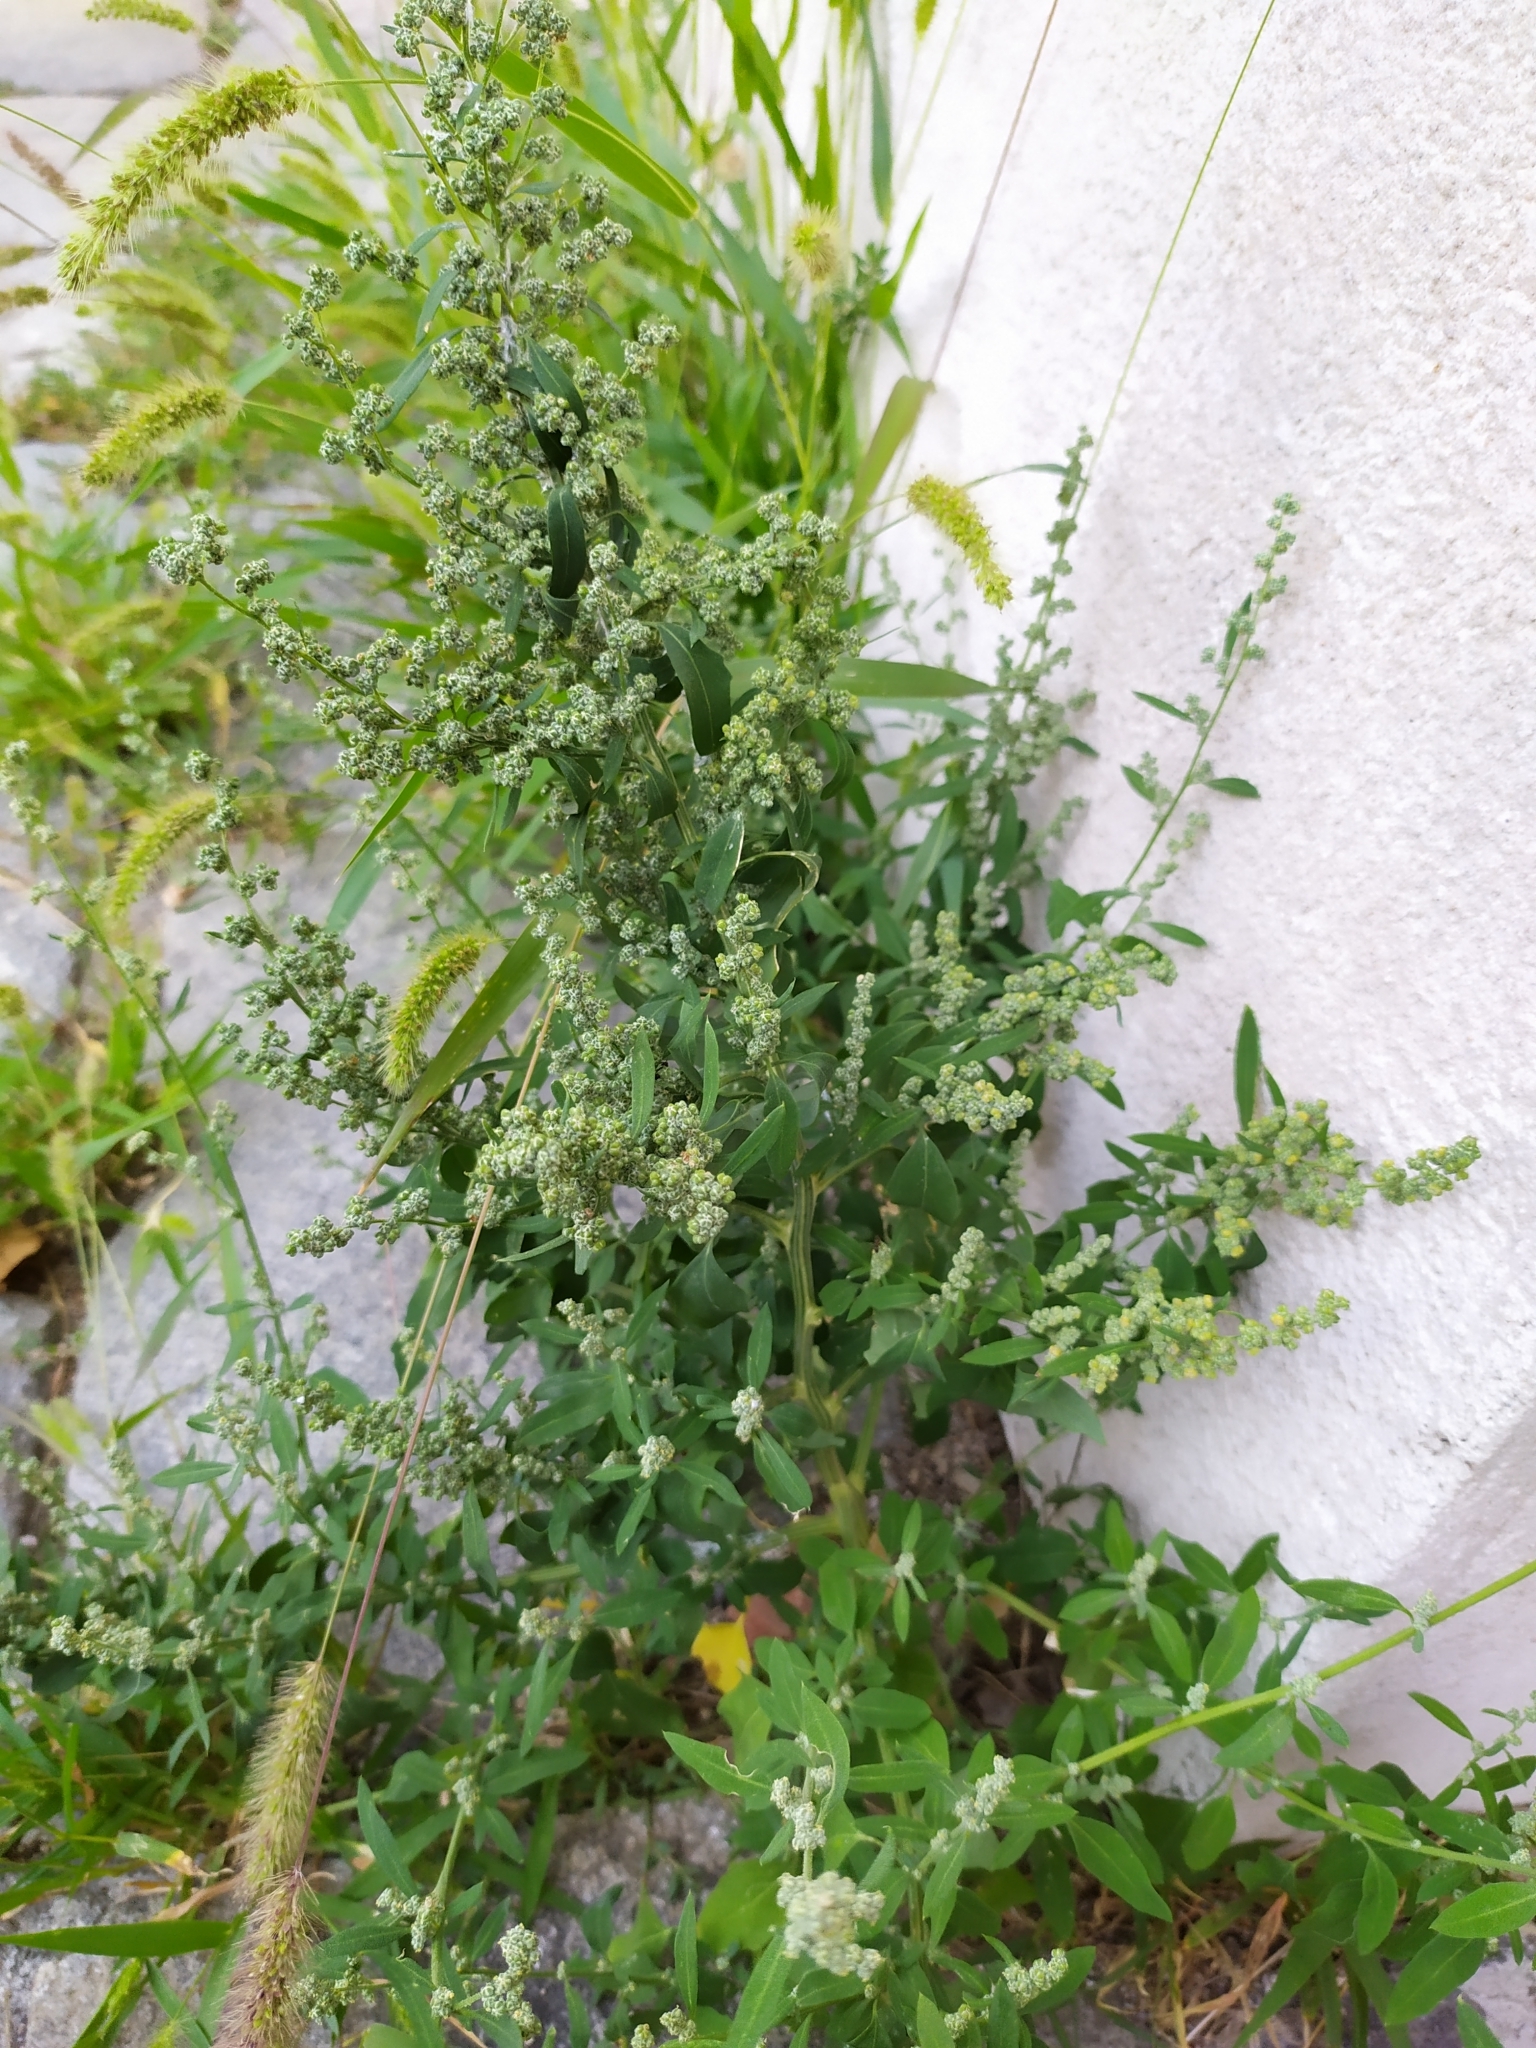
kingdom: Plantae
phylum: Tracheophyta
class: Magnoliopsida
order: Caryophyllales
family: Amaranthaceae
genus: Chenopodium
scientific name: Chenopodium album
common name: Fat-hen
